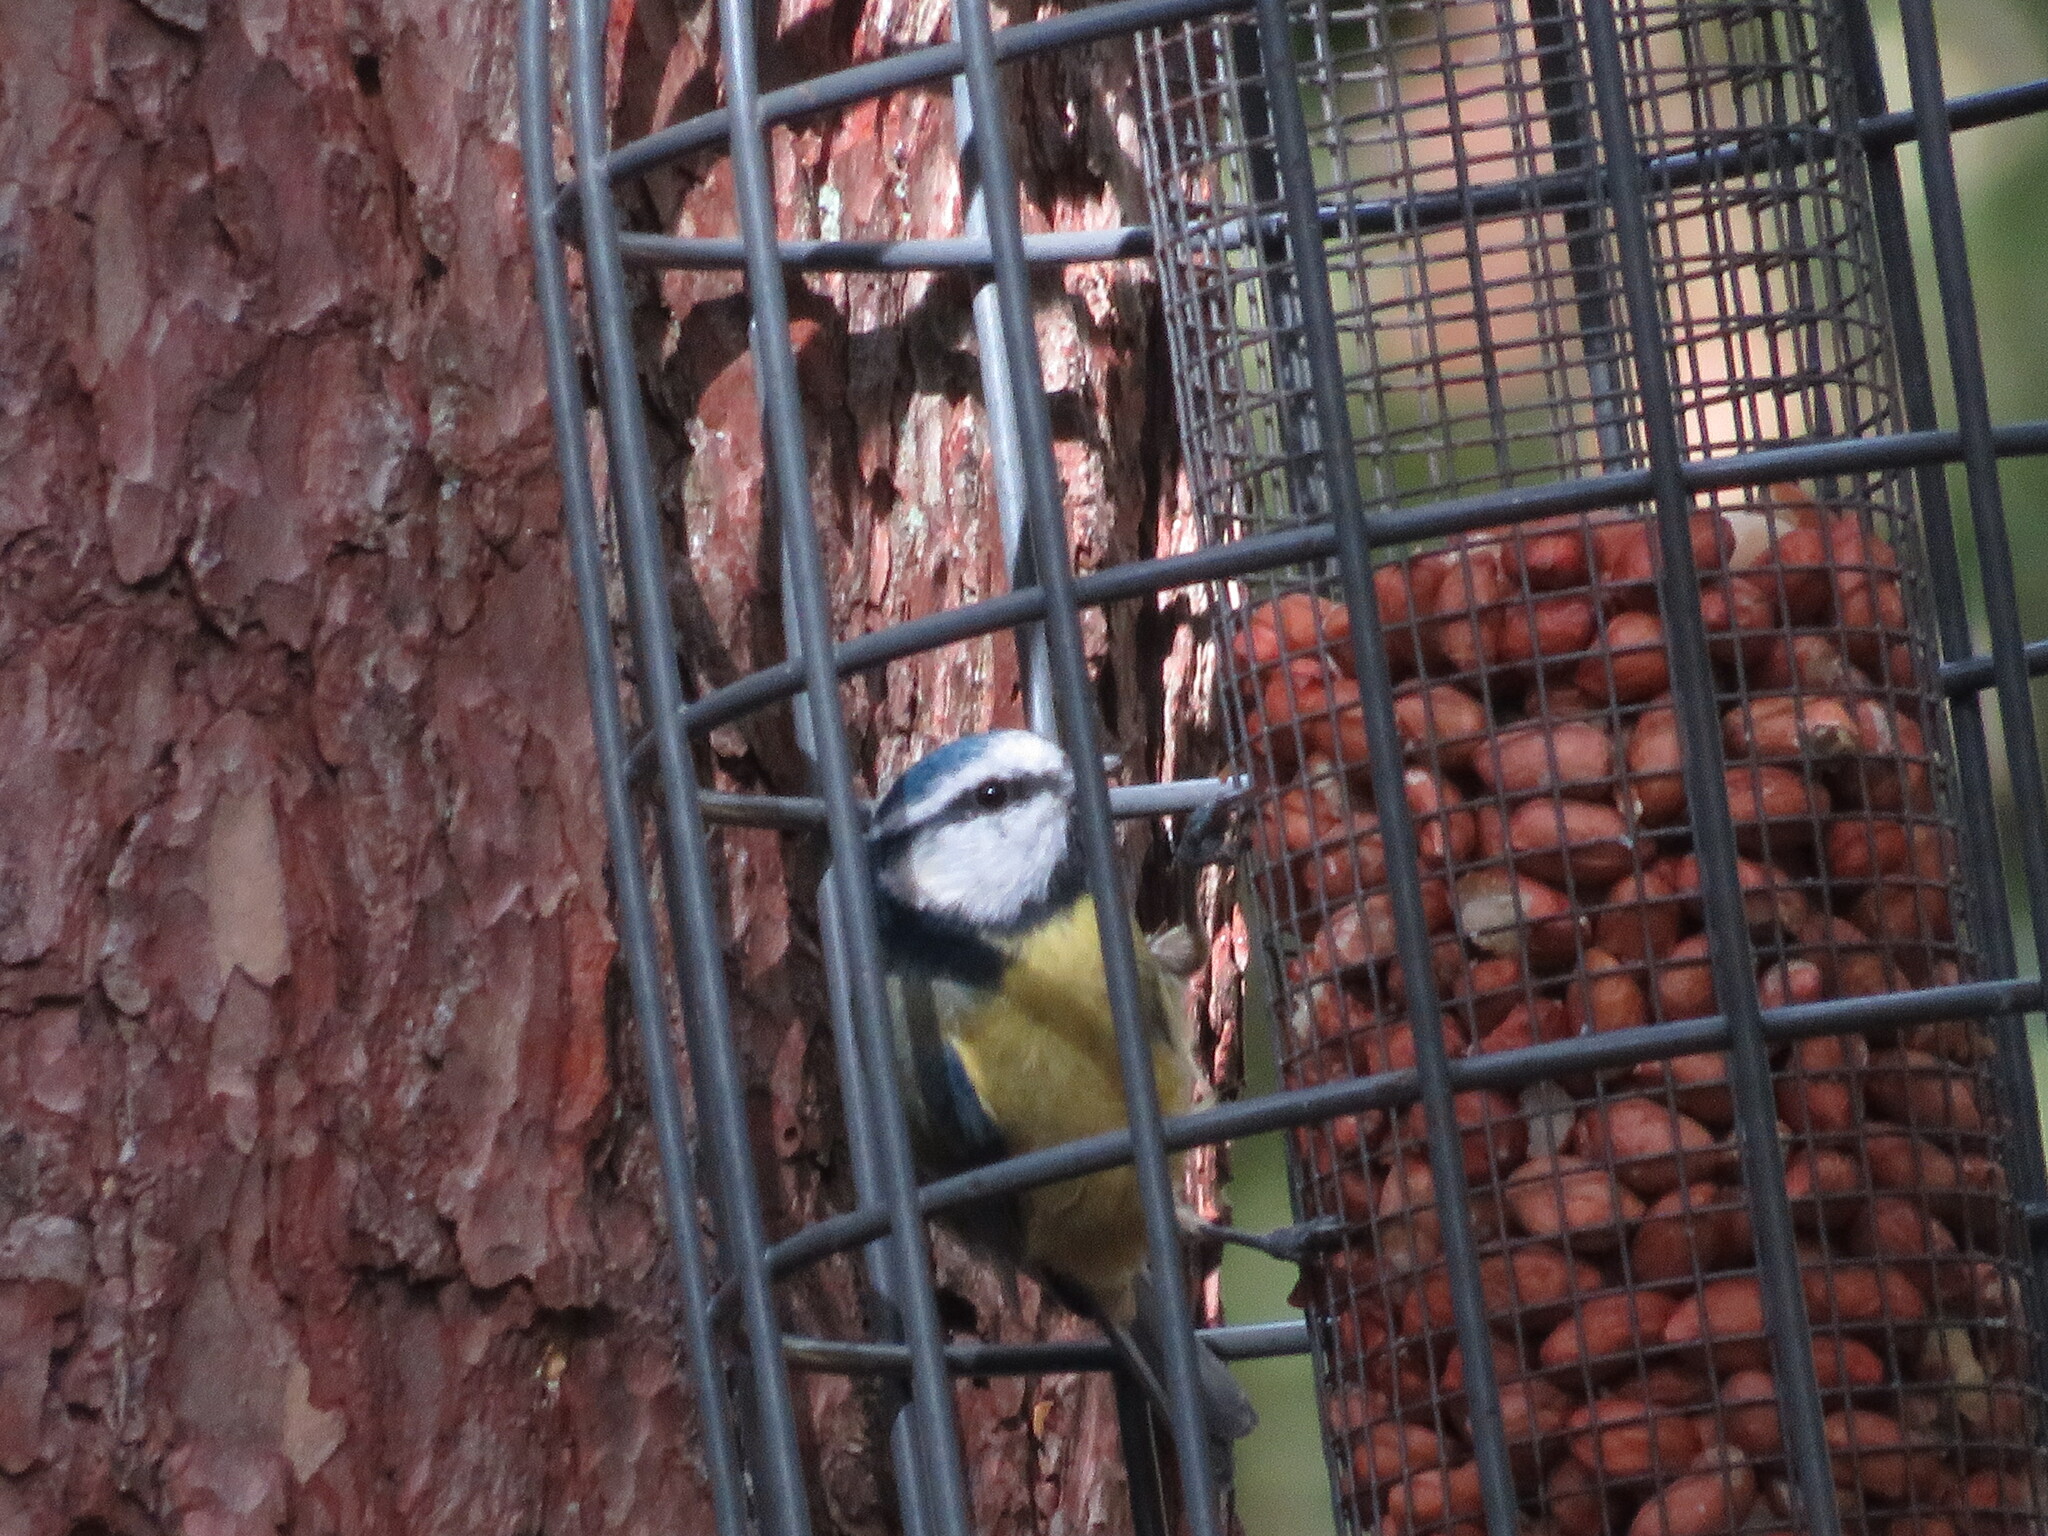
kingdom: Animalia
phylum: Chordata
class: Aves
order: Passeriformes
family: Paridae
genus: Cyanistes
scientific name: Cyanistes caeruleus
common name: Eurasian blue tit
